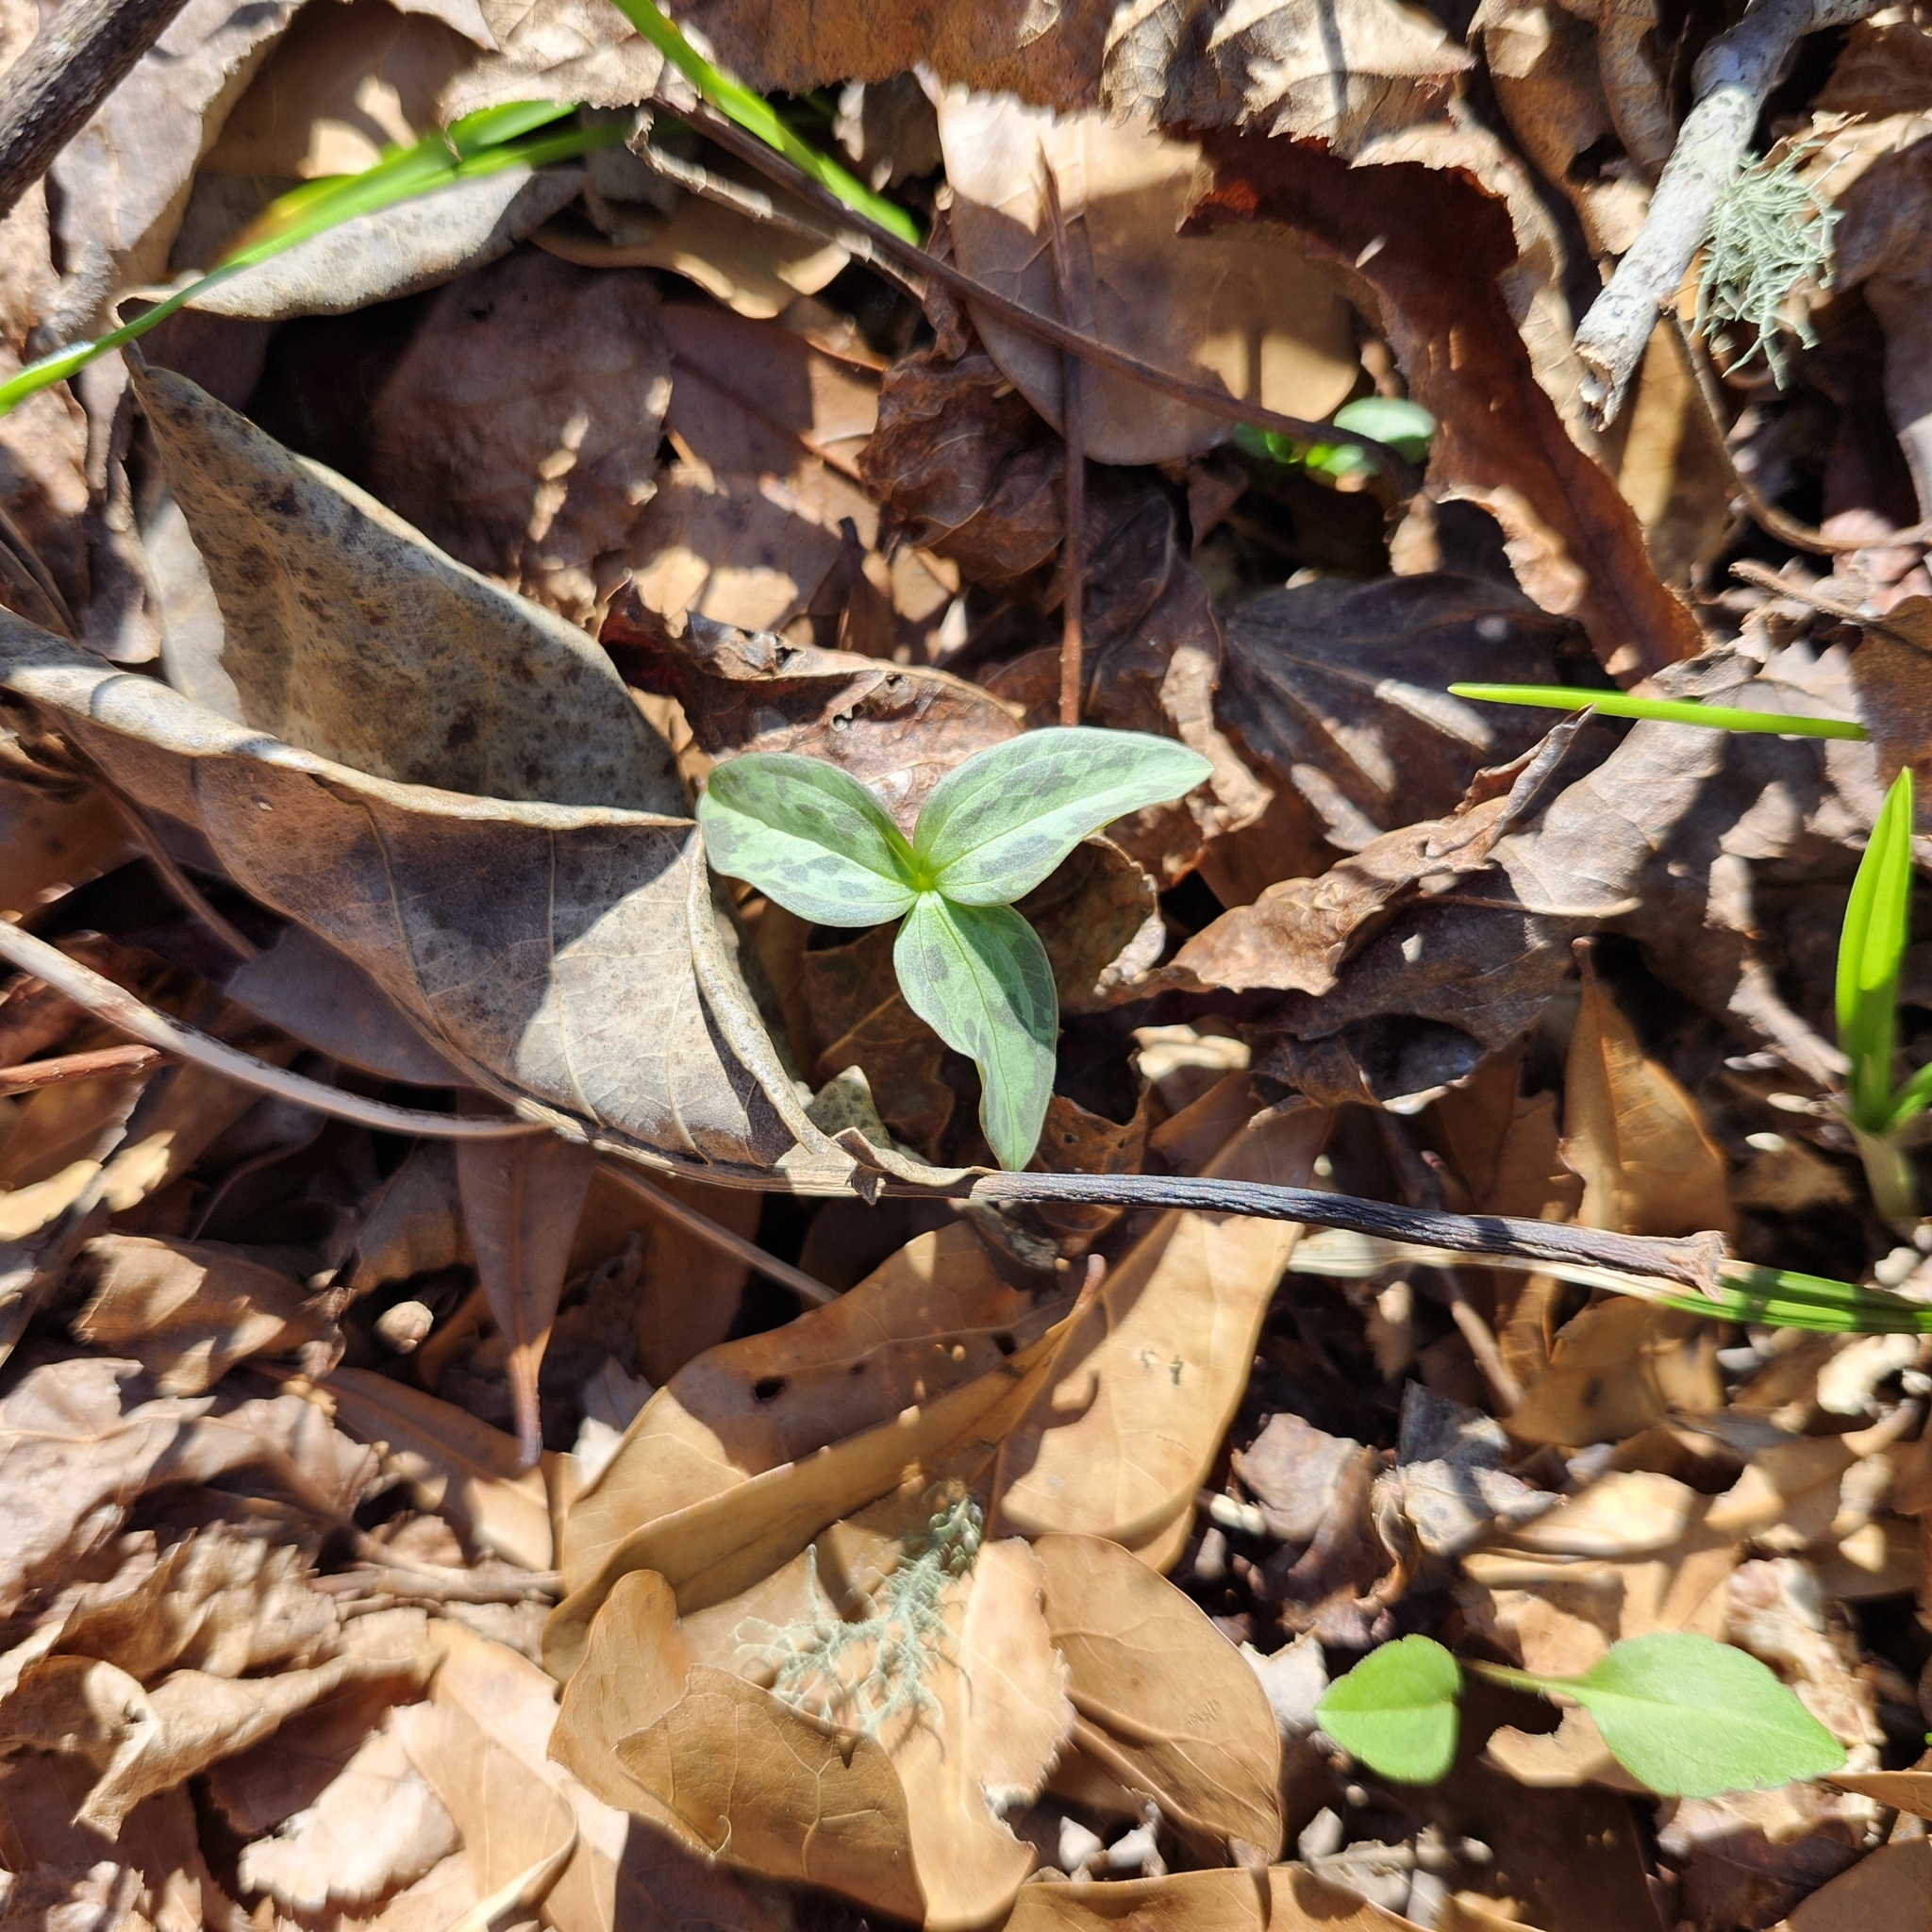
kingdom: Plantae
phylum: Tracheophyta
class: Liliopsida
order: Liliales
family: Melanthiaceae
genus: Trillium
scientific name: Trillium lancifolium
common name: Lance-leaved trillium
